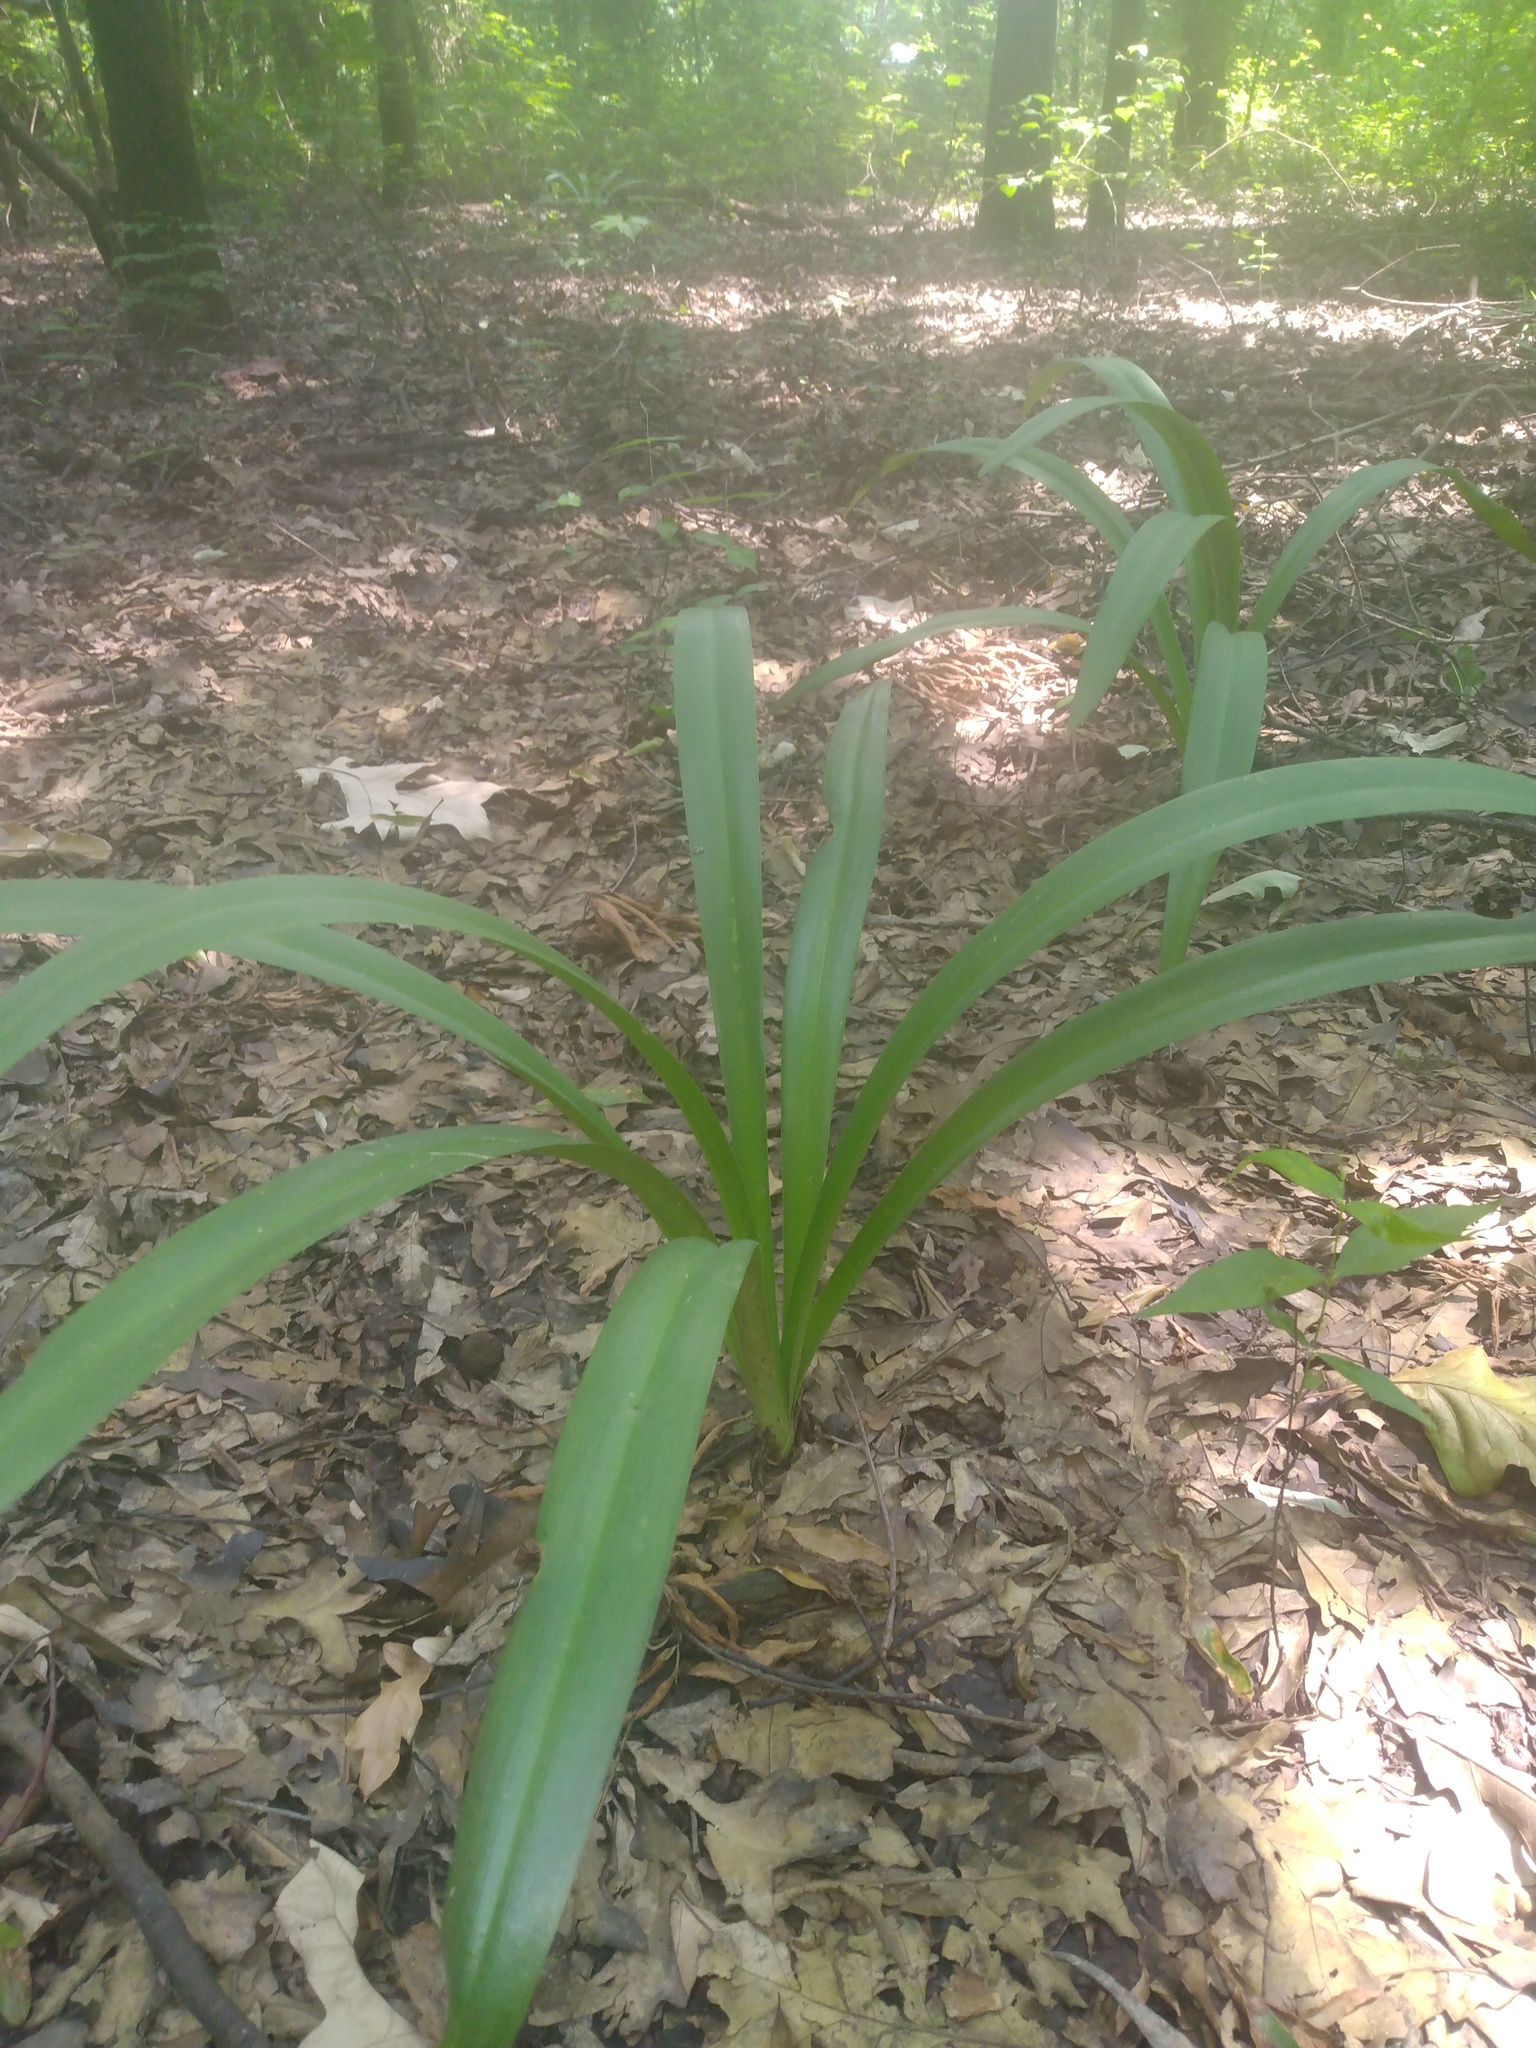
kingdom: Plantae
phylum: Tracheophyta
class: Liliopsida
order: Asparagales
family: Amaryllidaceae
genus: Hymenocallis
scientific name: Hymenocallis occidentalis
